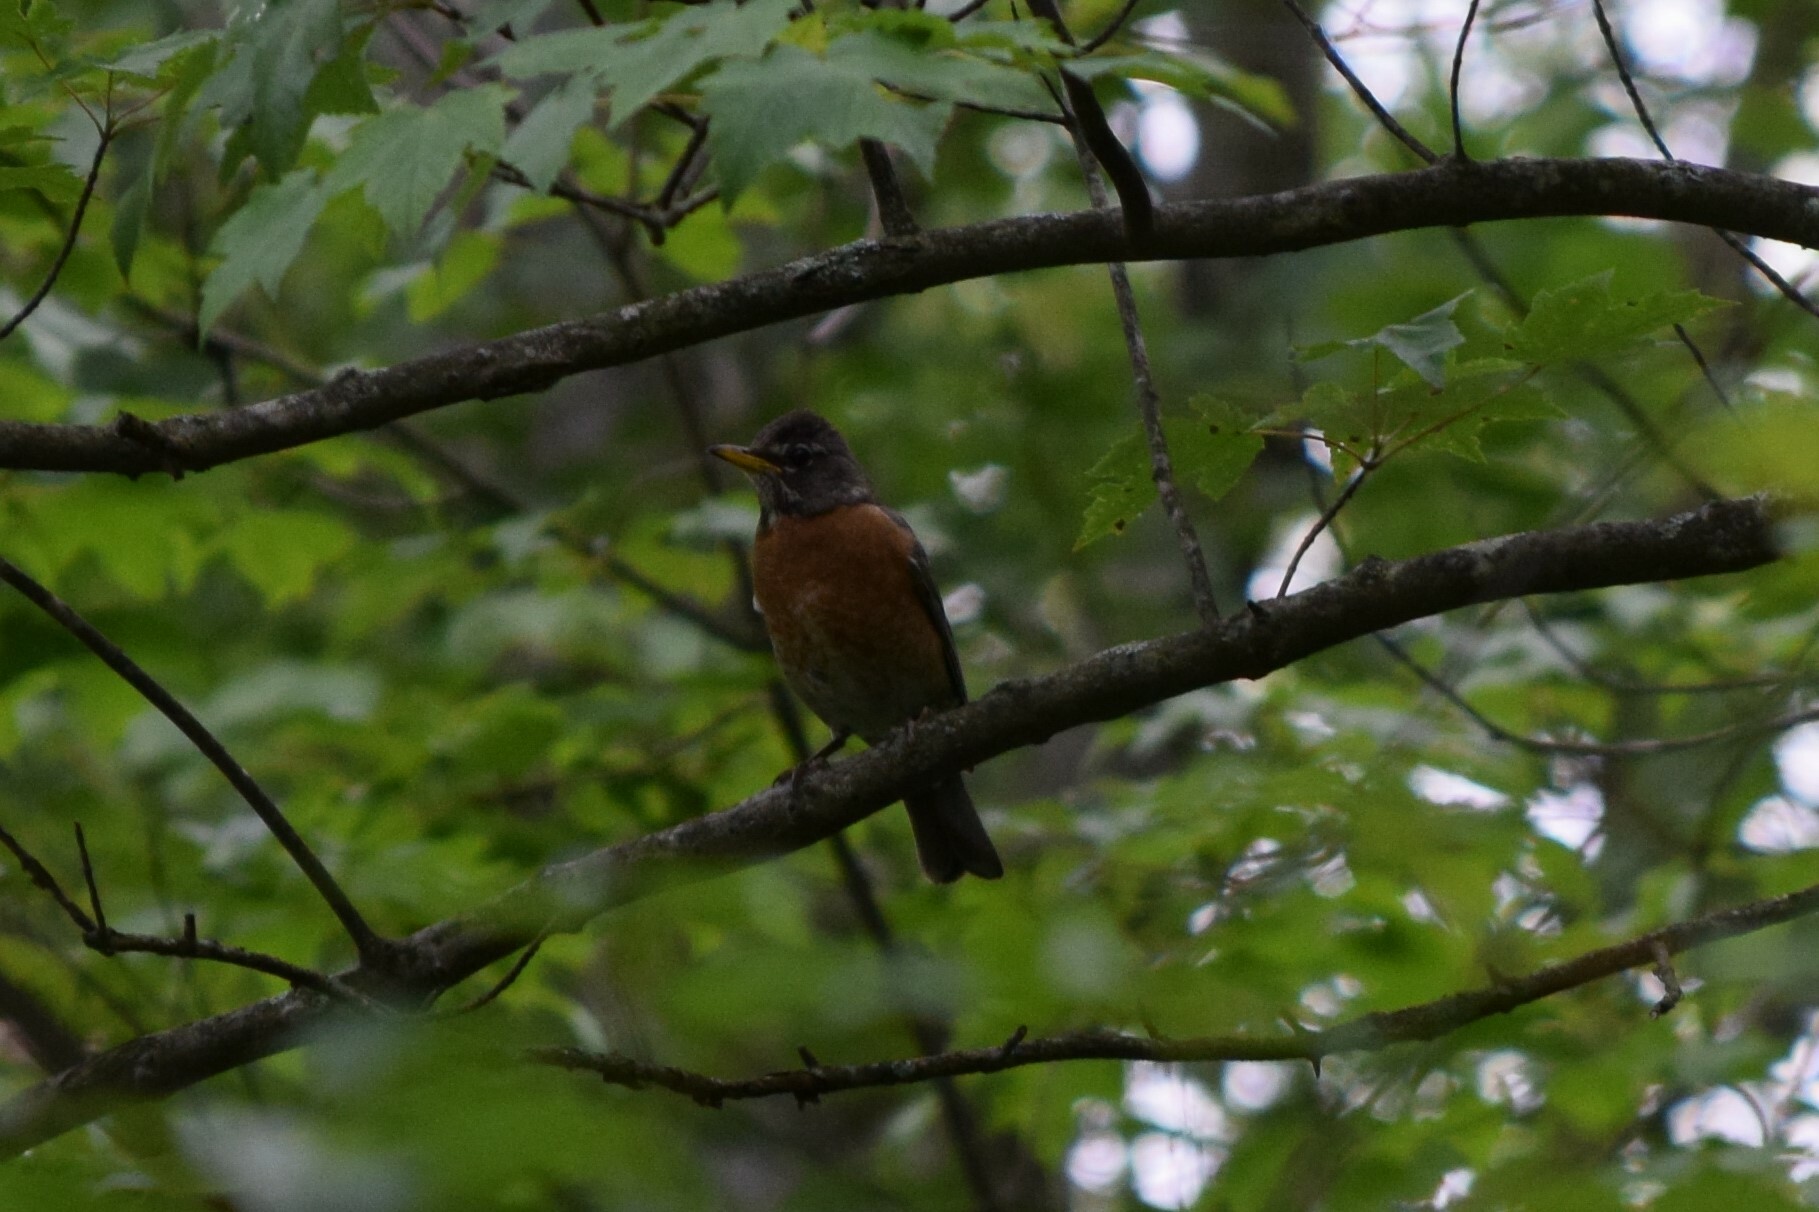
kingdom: Animalia
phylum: Chordata
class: Aves
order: Passeriformes
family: Turdidae
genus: Turdus
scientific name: Turdus migratorius
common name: American robin
